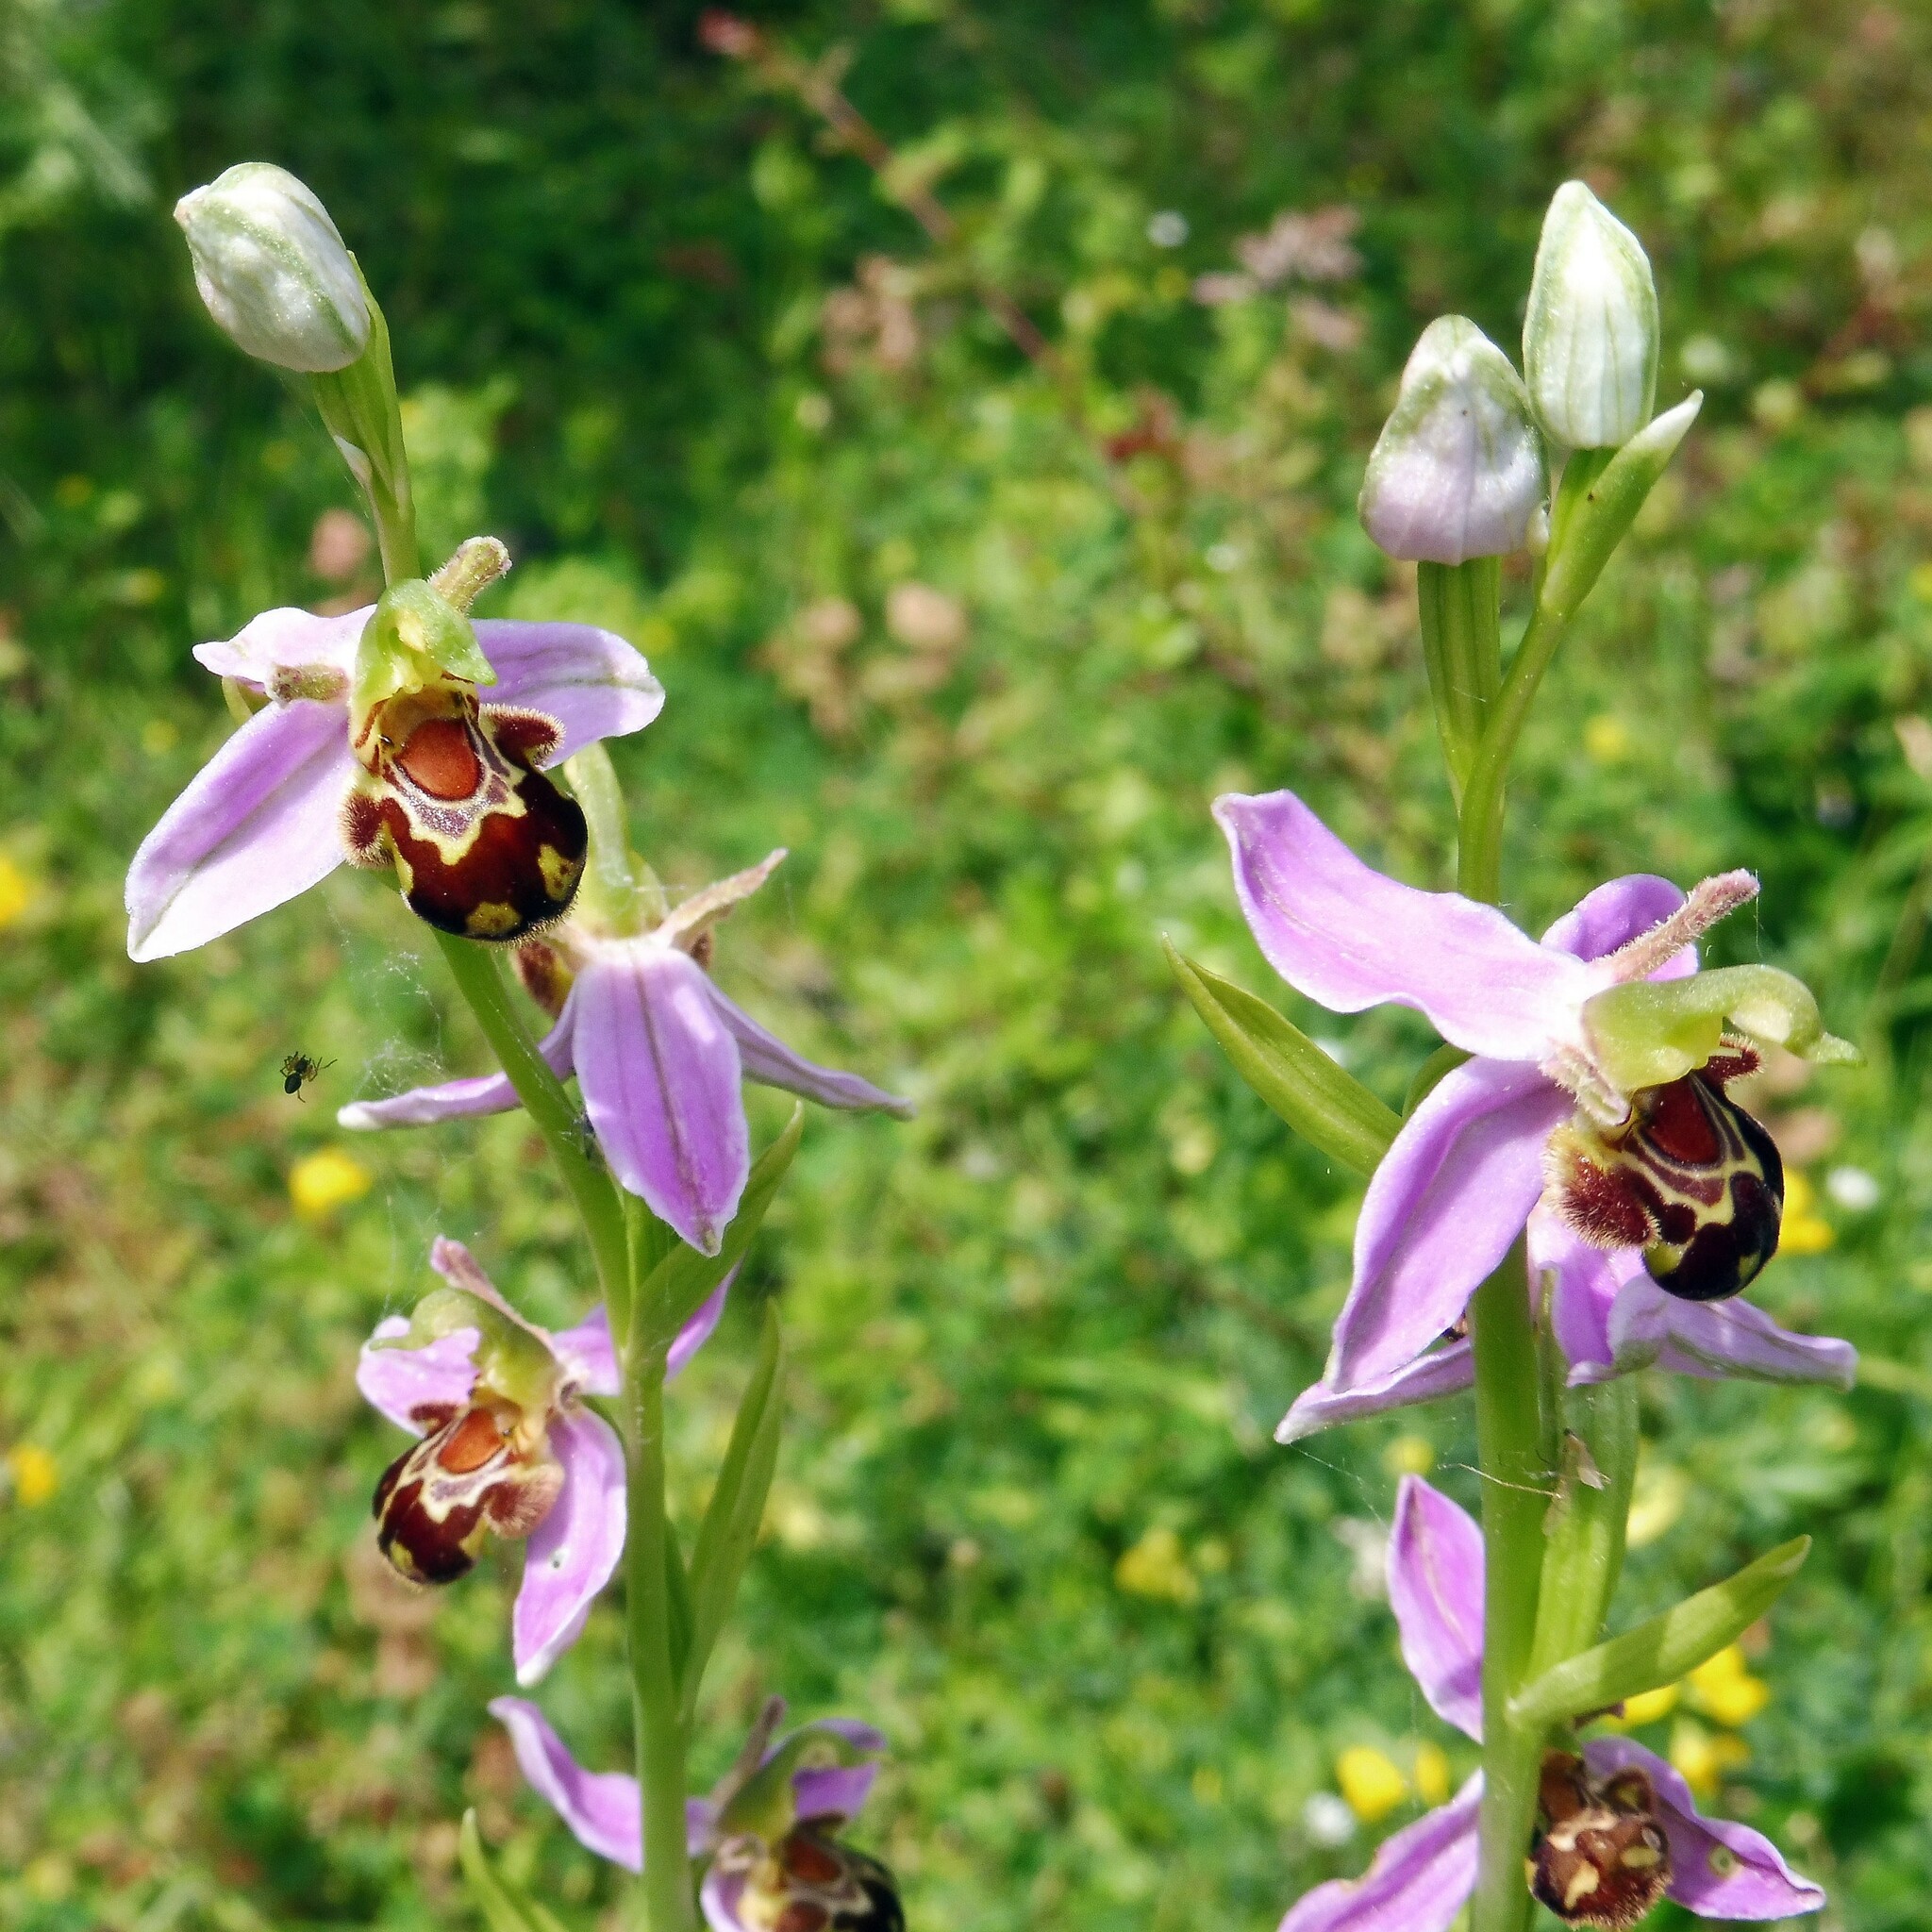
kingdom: Plantae
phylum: Tracheophyta
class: Liliopsida
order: Asparagales
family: Orchidaceae
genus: Ophrys
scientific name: Ophrys apifera
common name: Bee orchid
